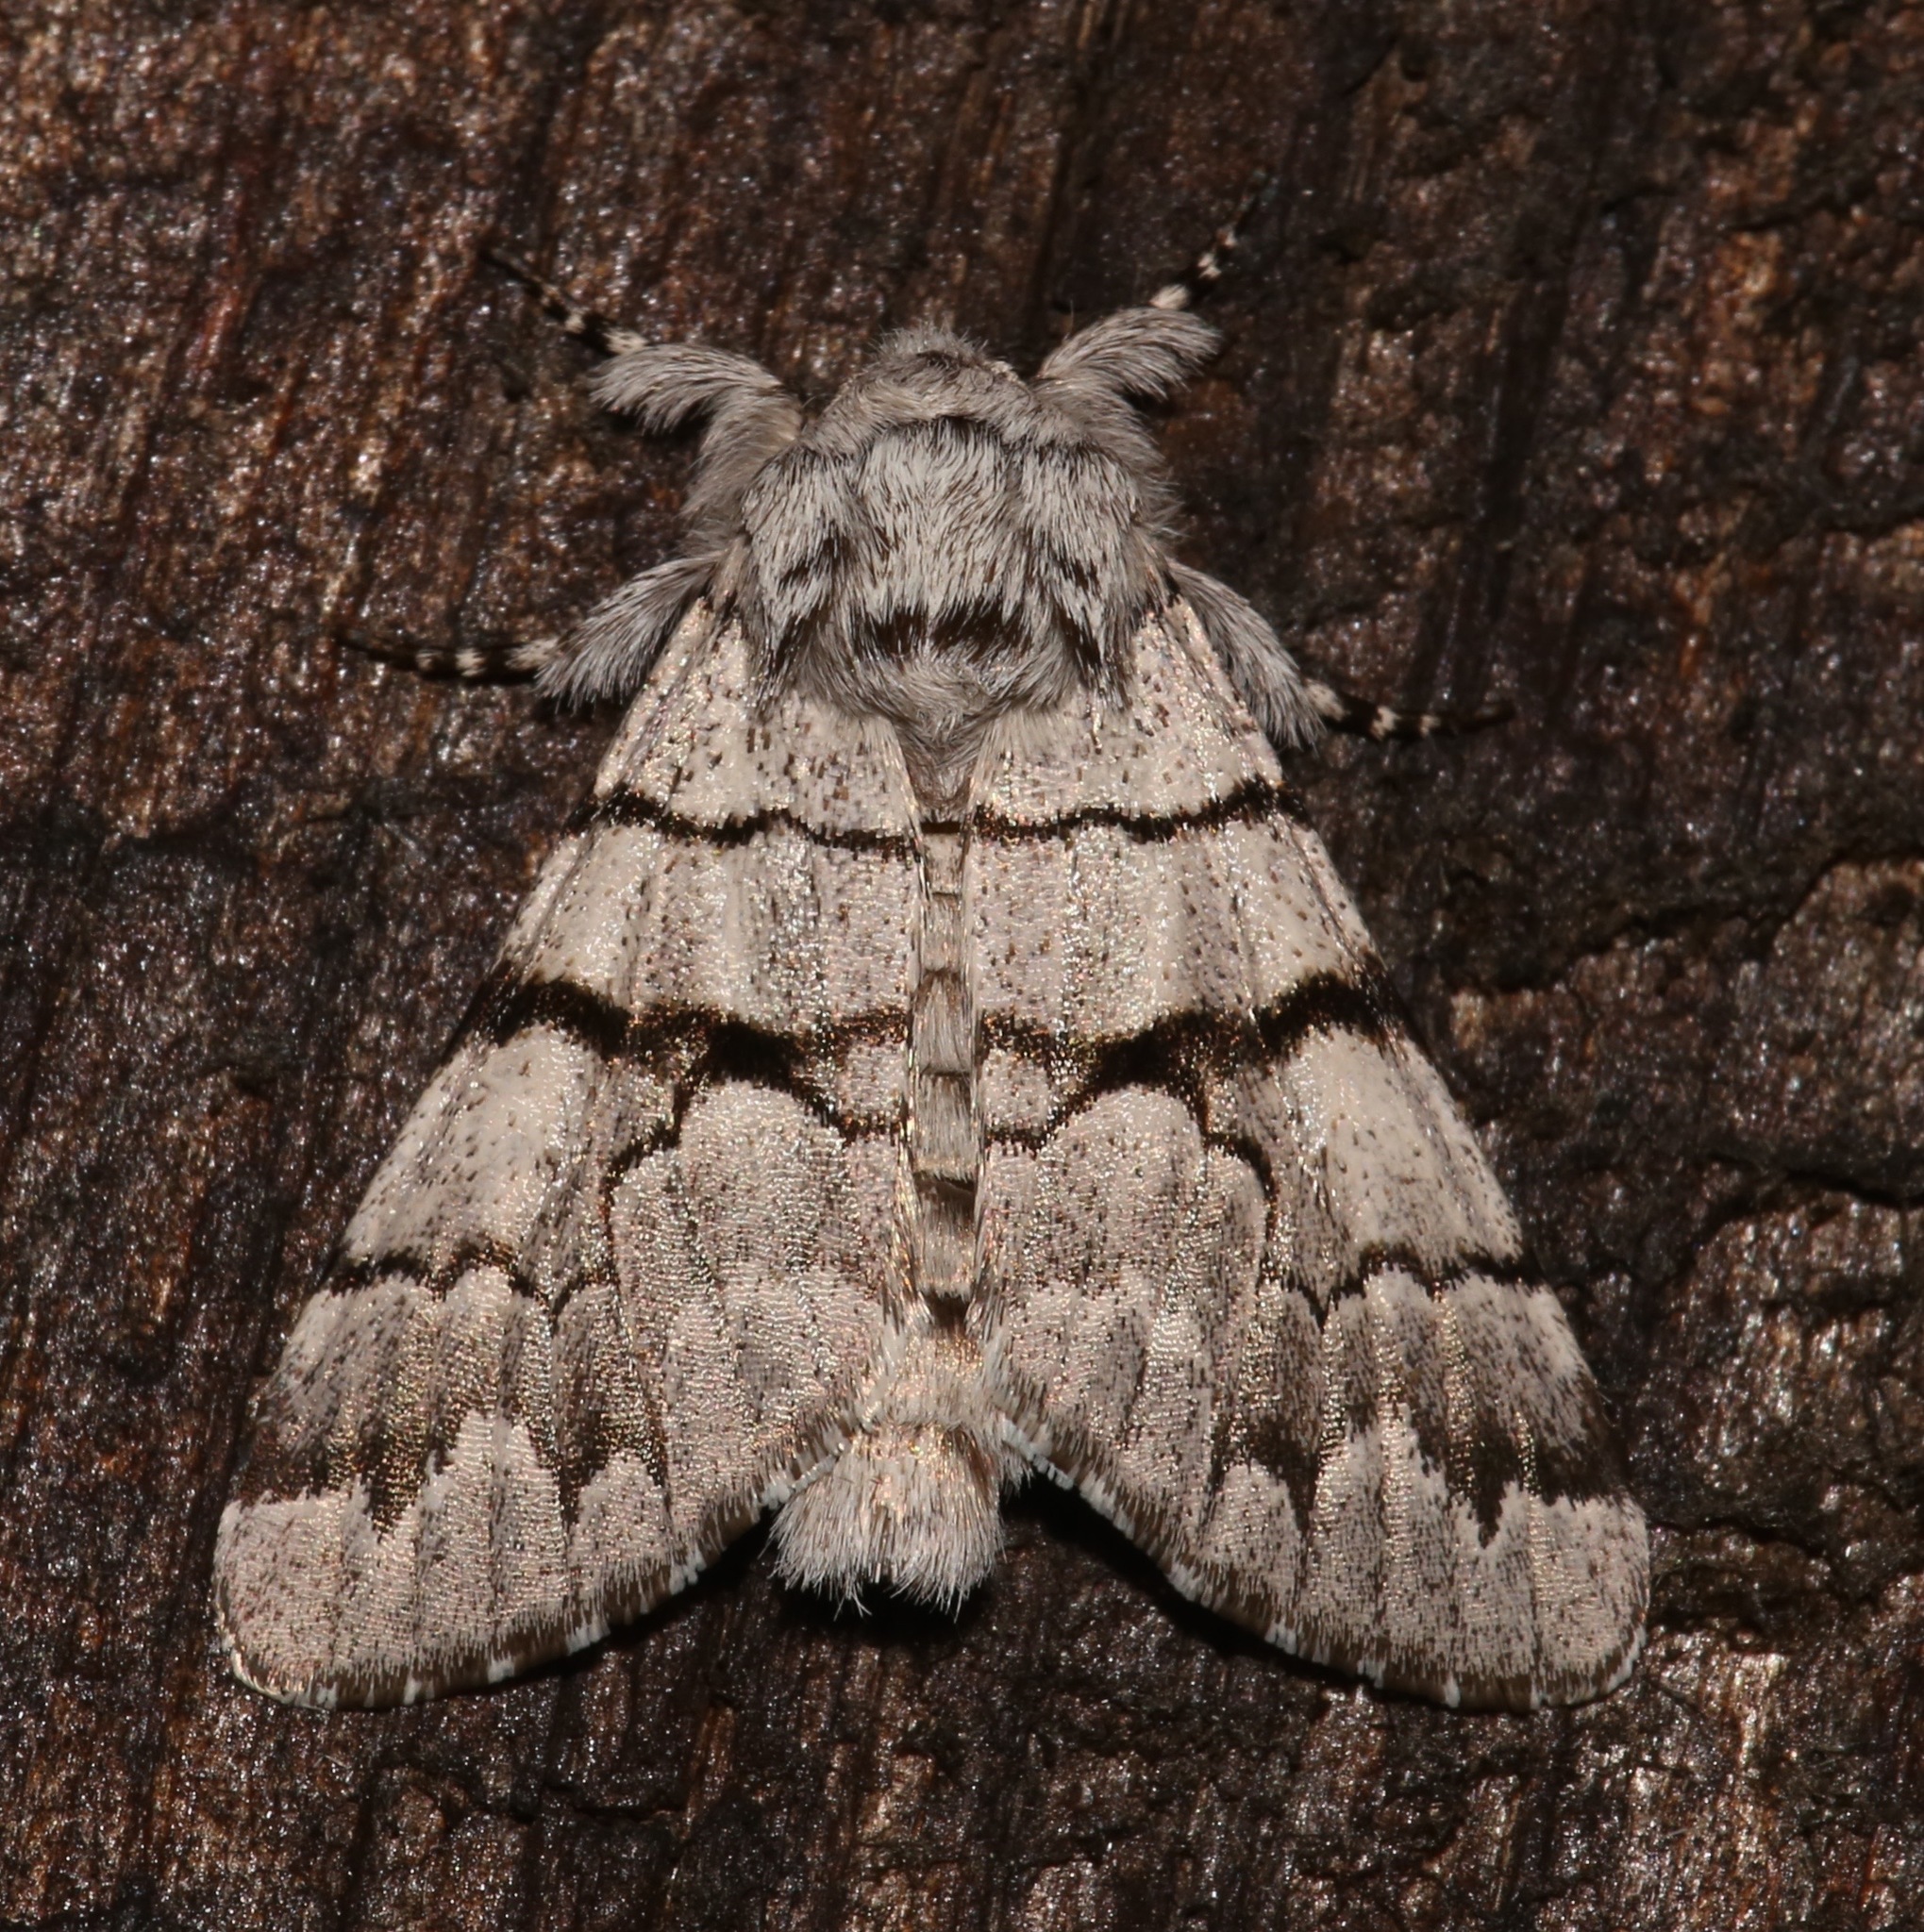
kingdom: Animalia
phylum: Arthropoda
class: Insecta
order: Lepidoptera
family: Noctuidae
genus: Panthea
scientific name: Panthea furcilla
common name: Eastern panthea moth
